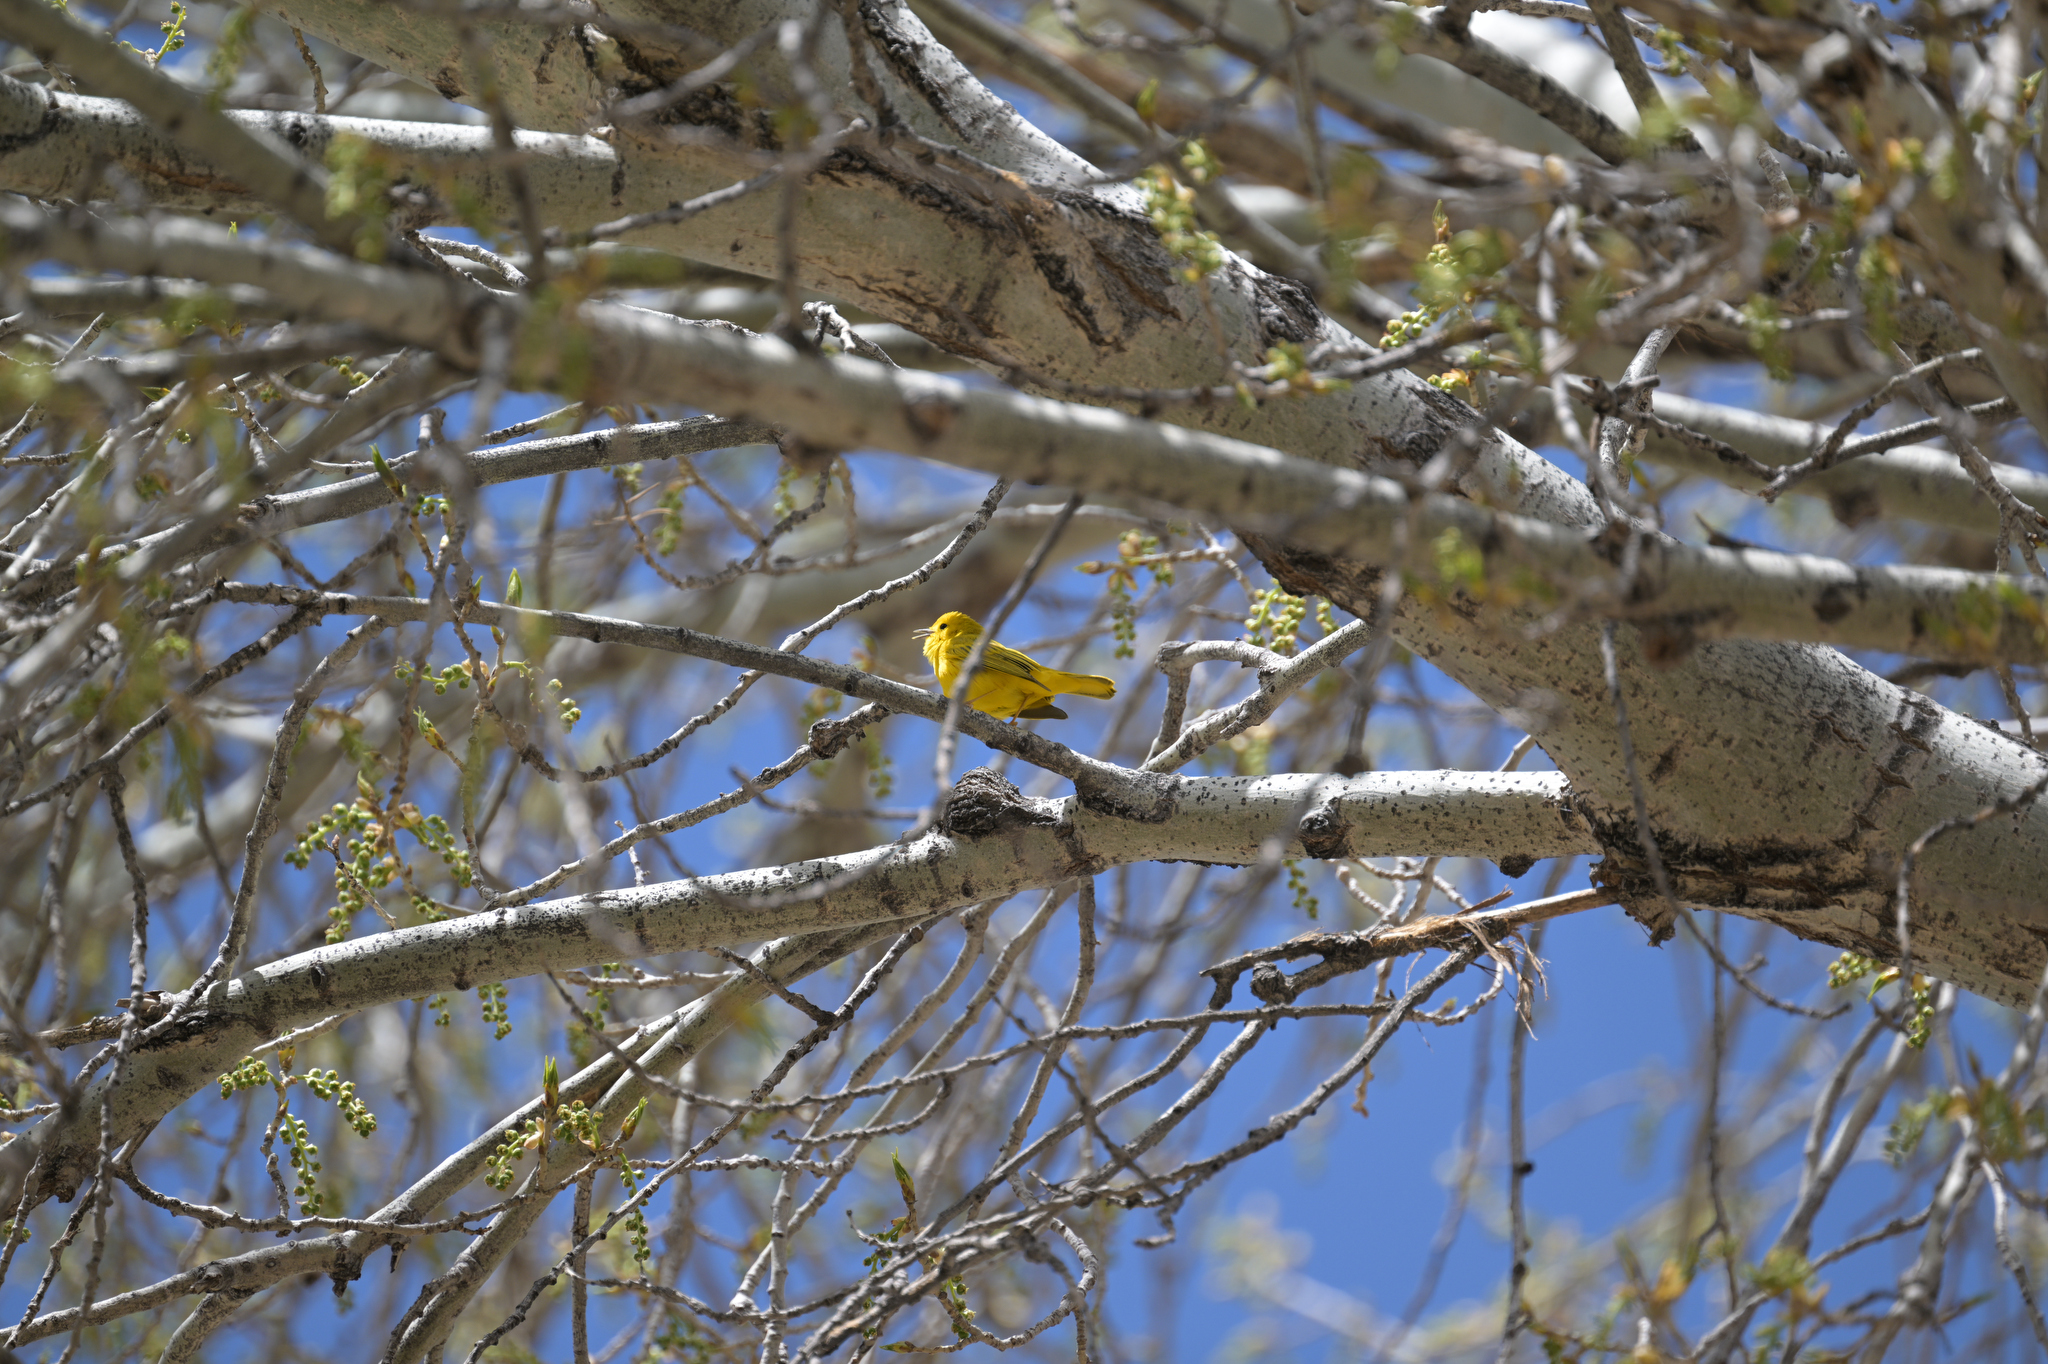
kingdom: Animalia
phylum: Chordata
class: Aves
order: Passeriformes
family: Parulidae
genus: Setophaga
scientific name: Setophaga petechia
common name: Yellow warbler
